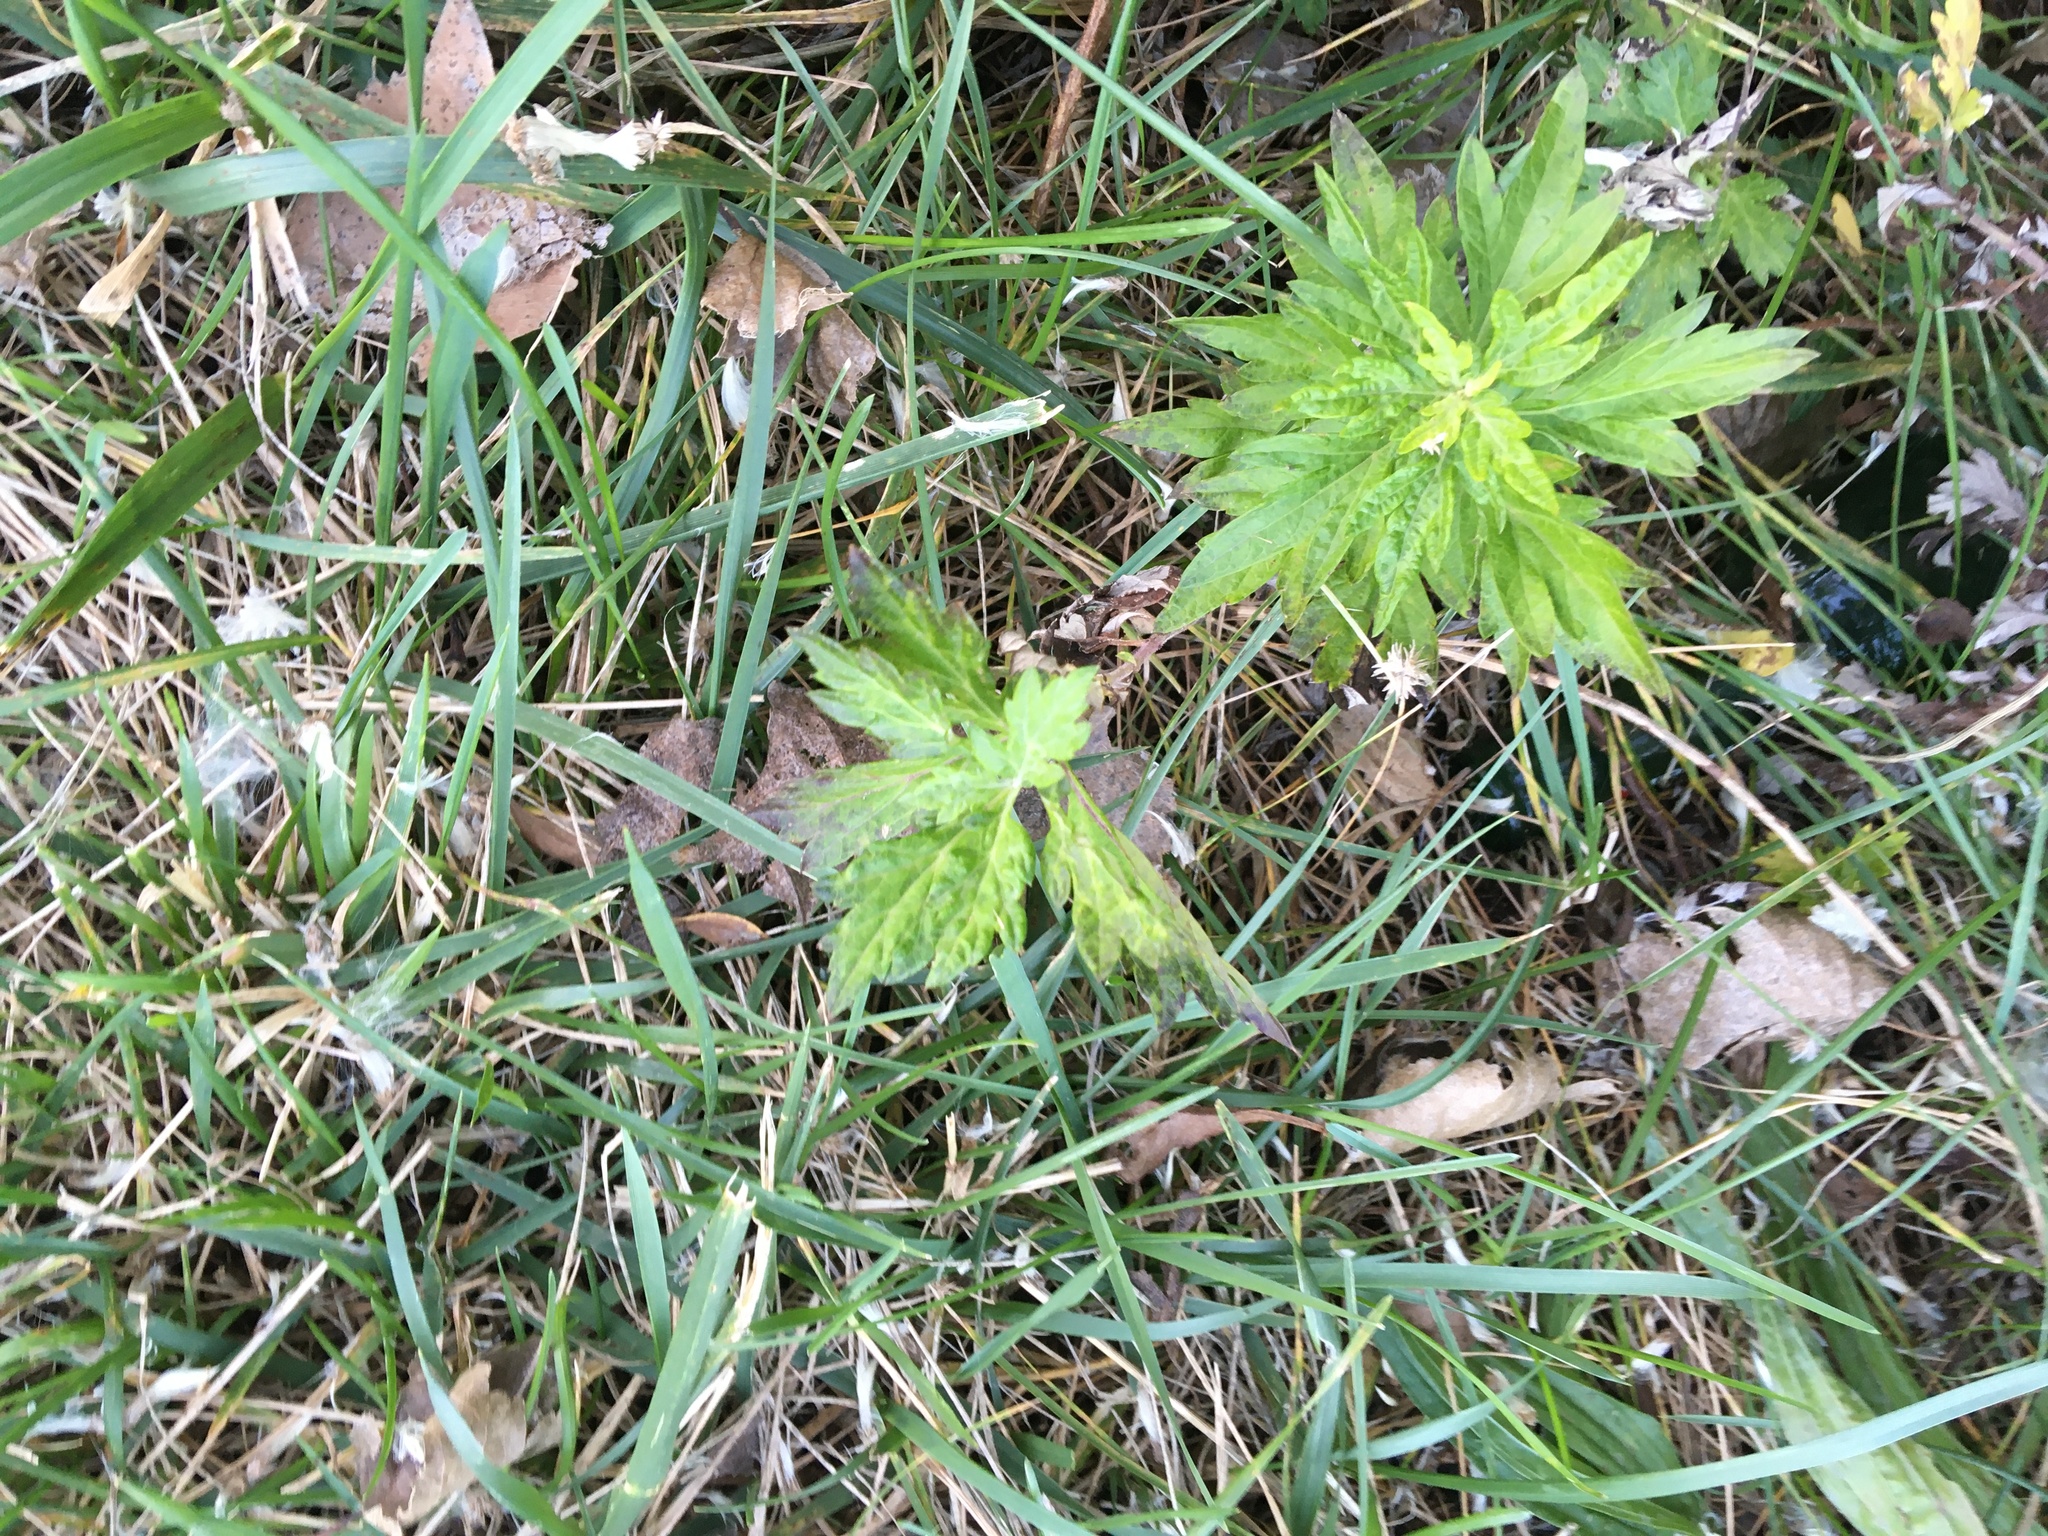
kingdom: Plantae
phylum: Tracheophyta
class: Magnoliopsida
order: Asterales
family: Asteraceae
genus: Artemisia
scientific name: Artemisia vulgaris
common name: Mugwort
